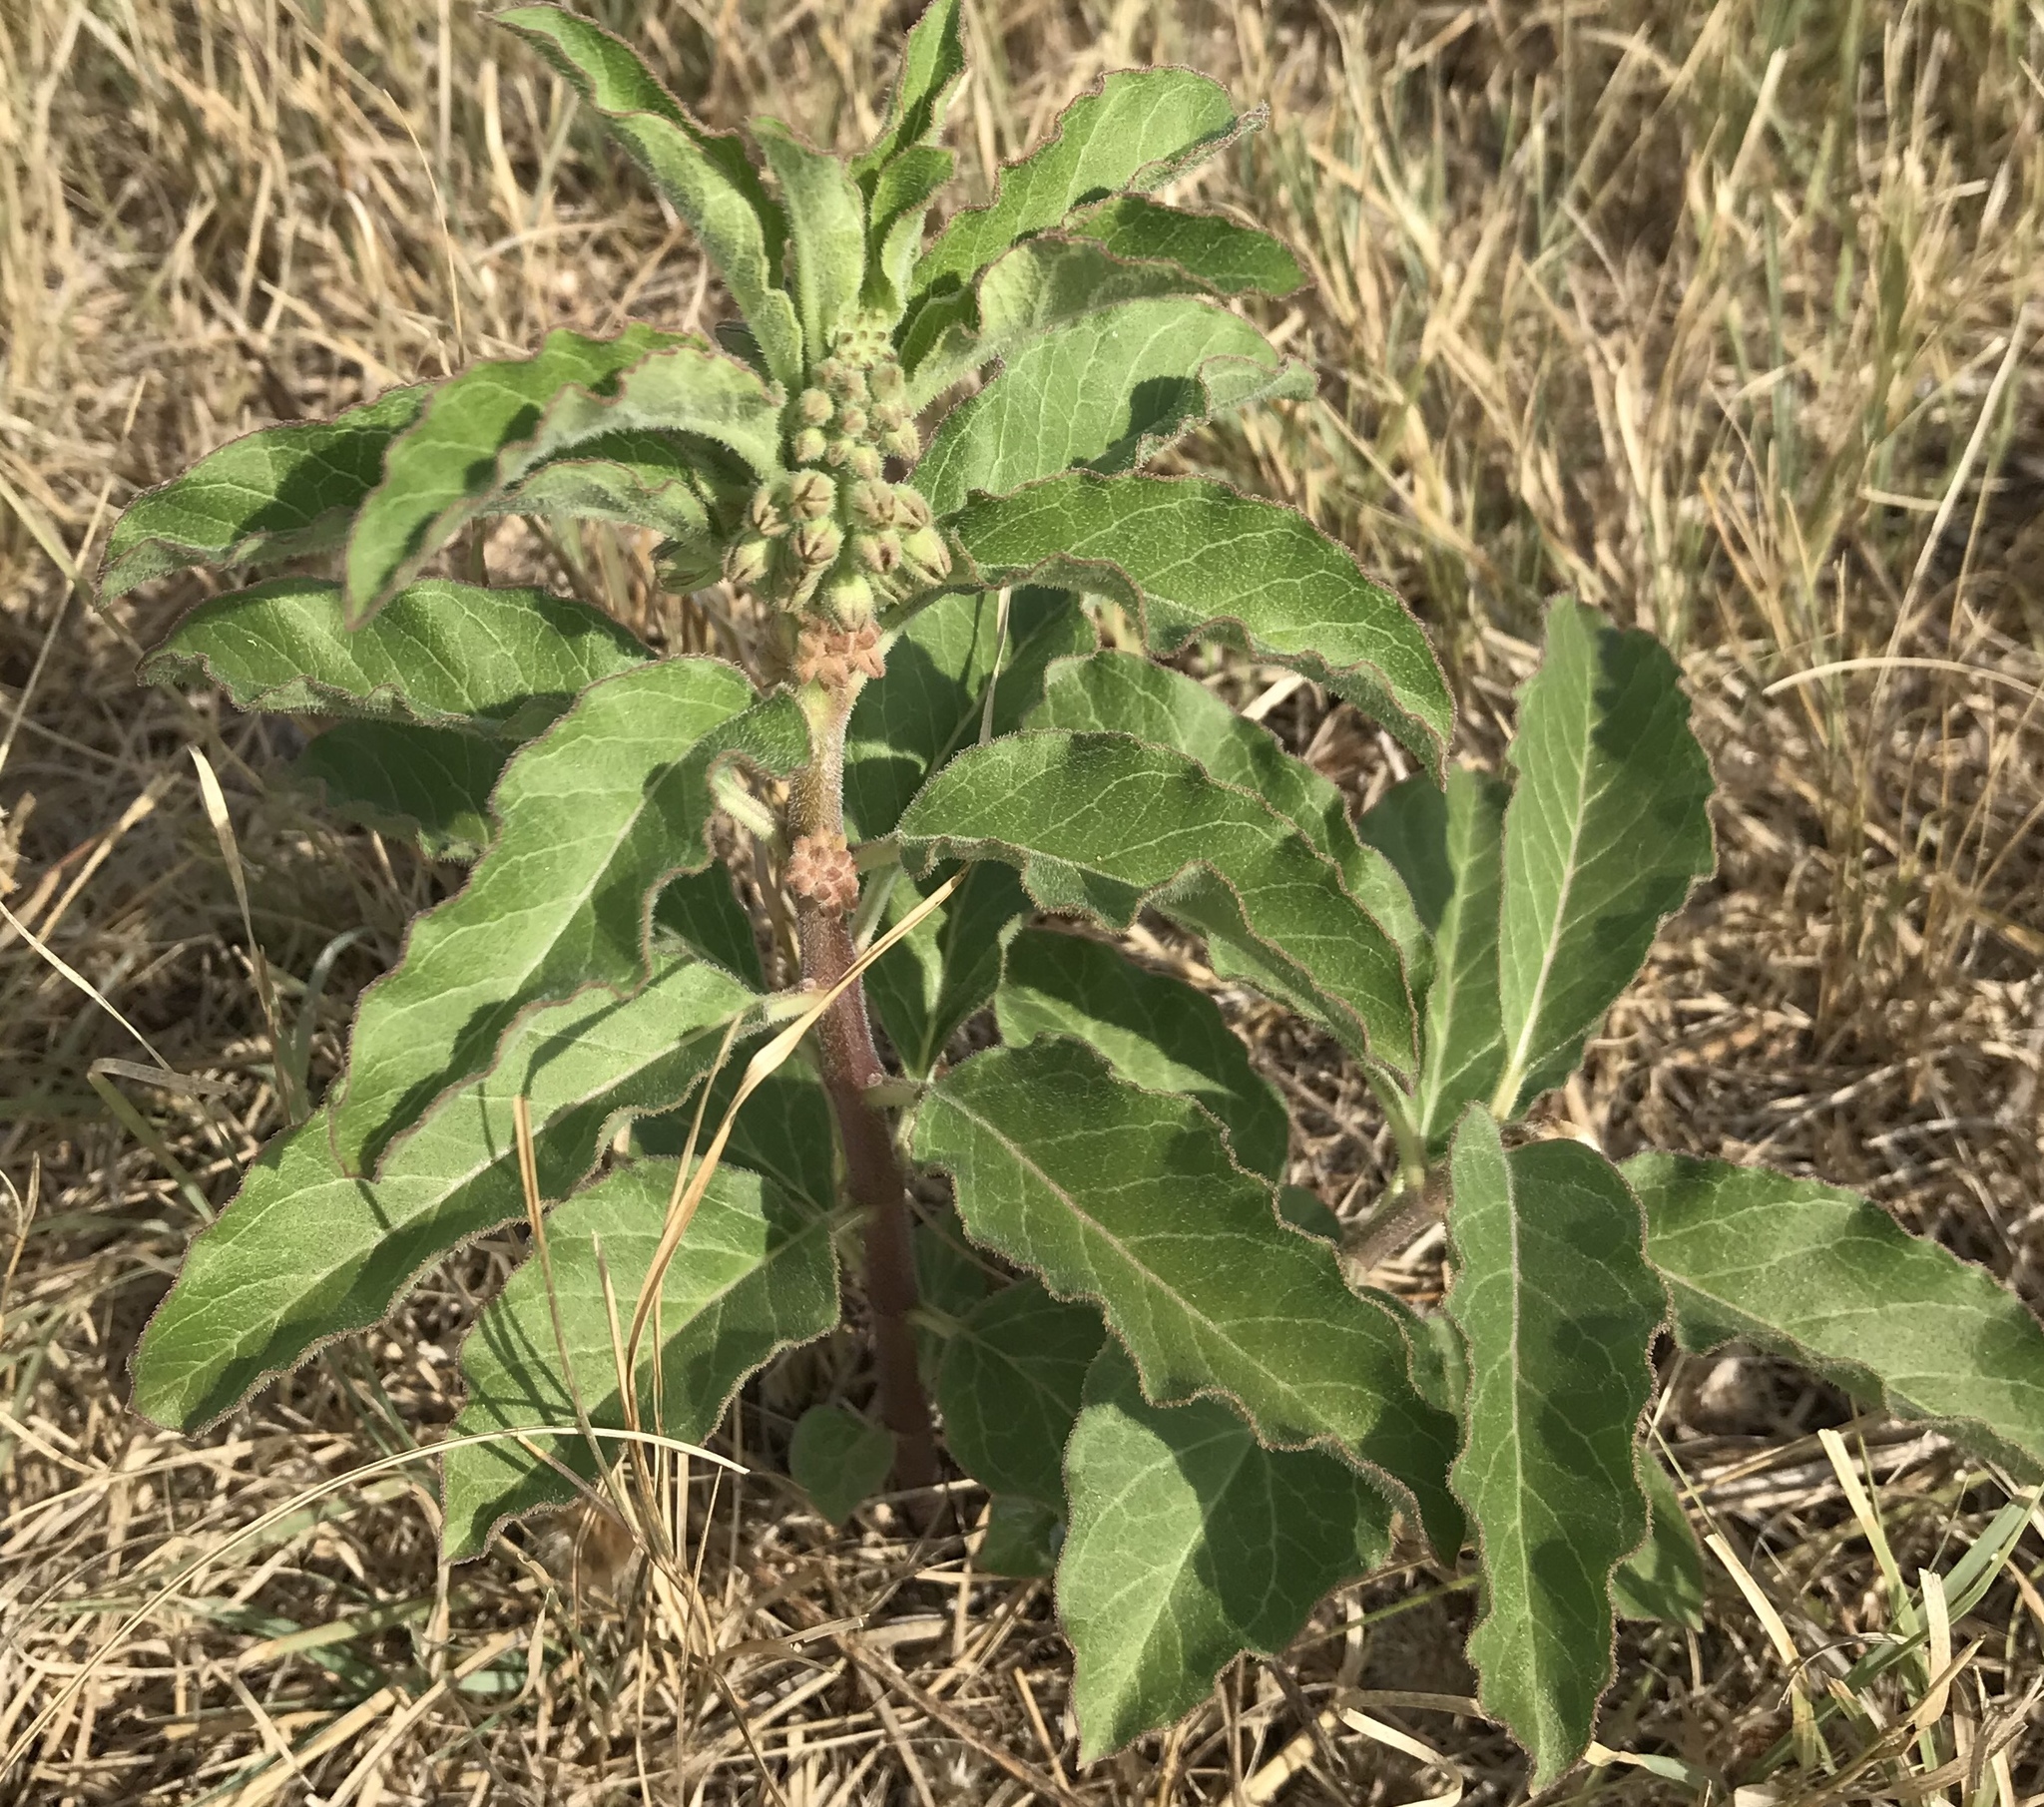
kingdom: Plantae
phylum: Tracheophyta
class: Magnoliopsida
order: Gentianales
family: Apocynaceae
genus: Asclepias
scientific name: Asclepias oenotheroides
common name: Zizotes milkweed
